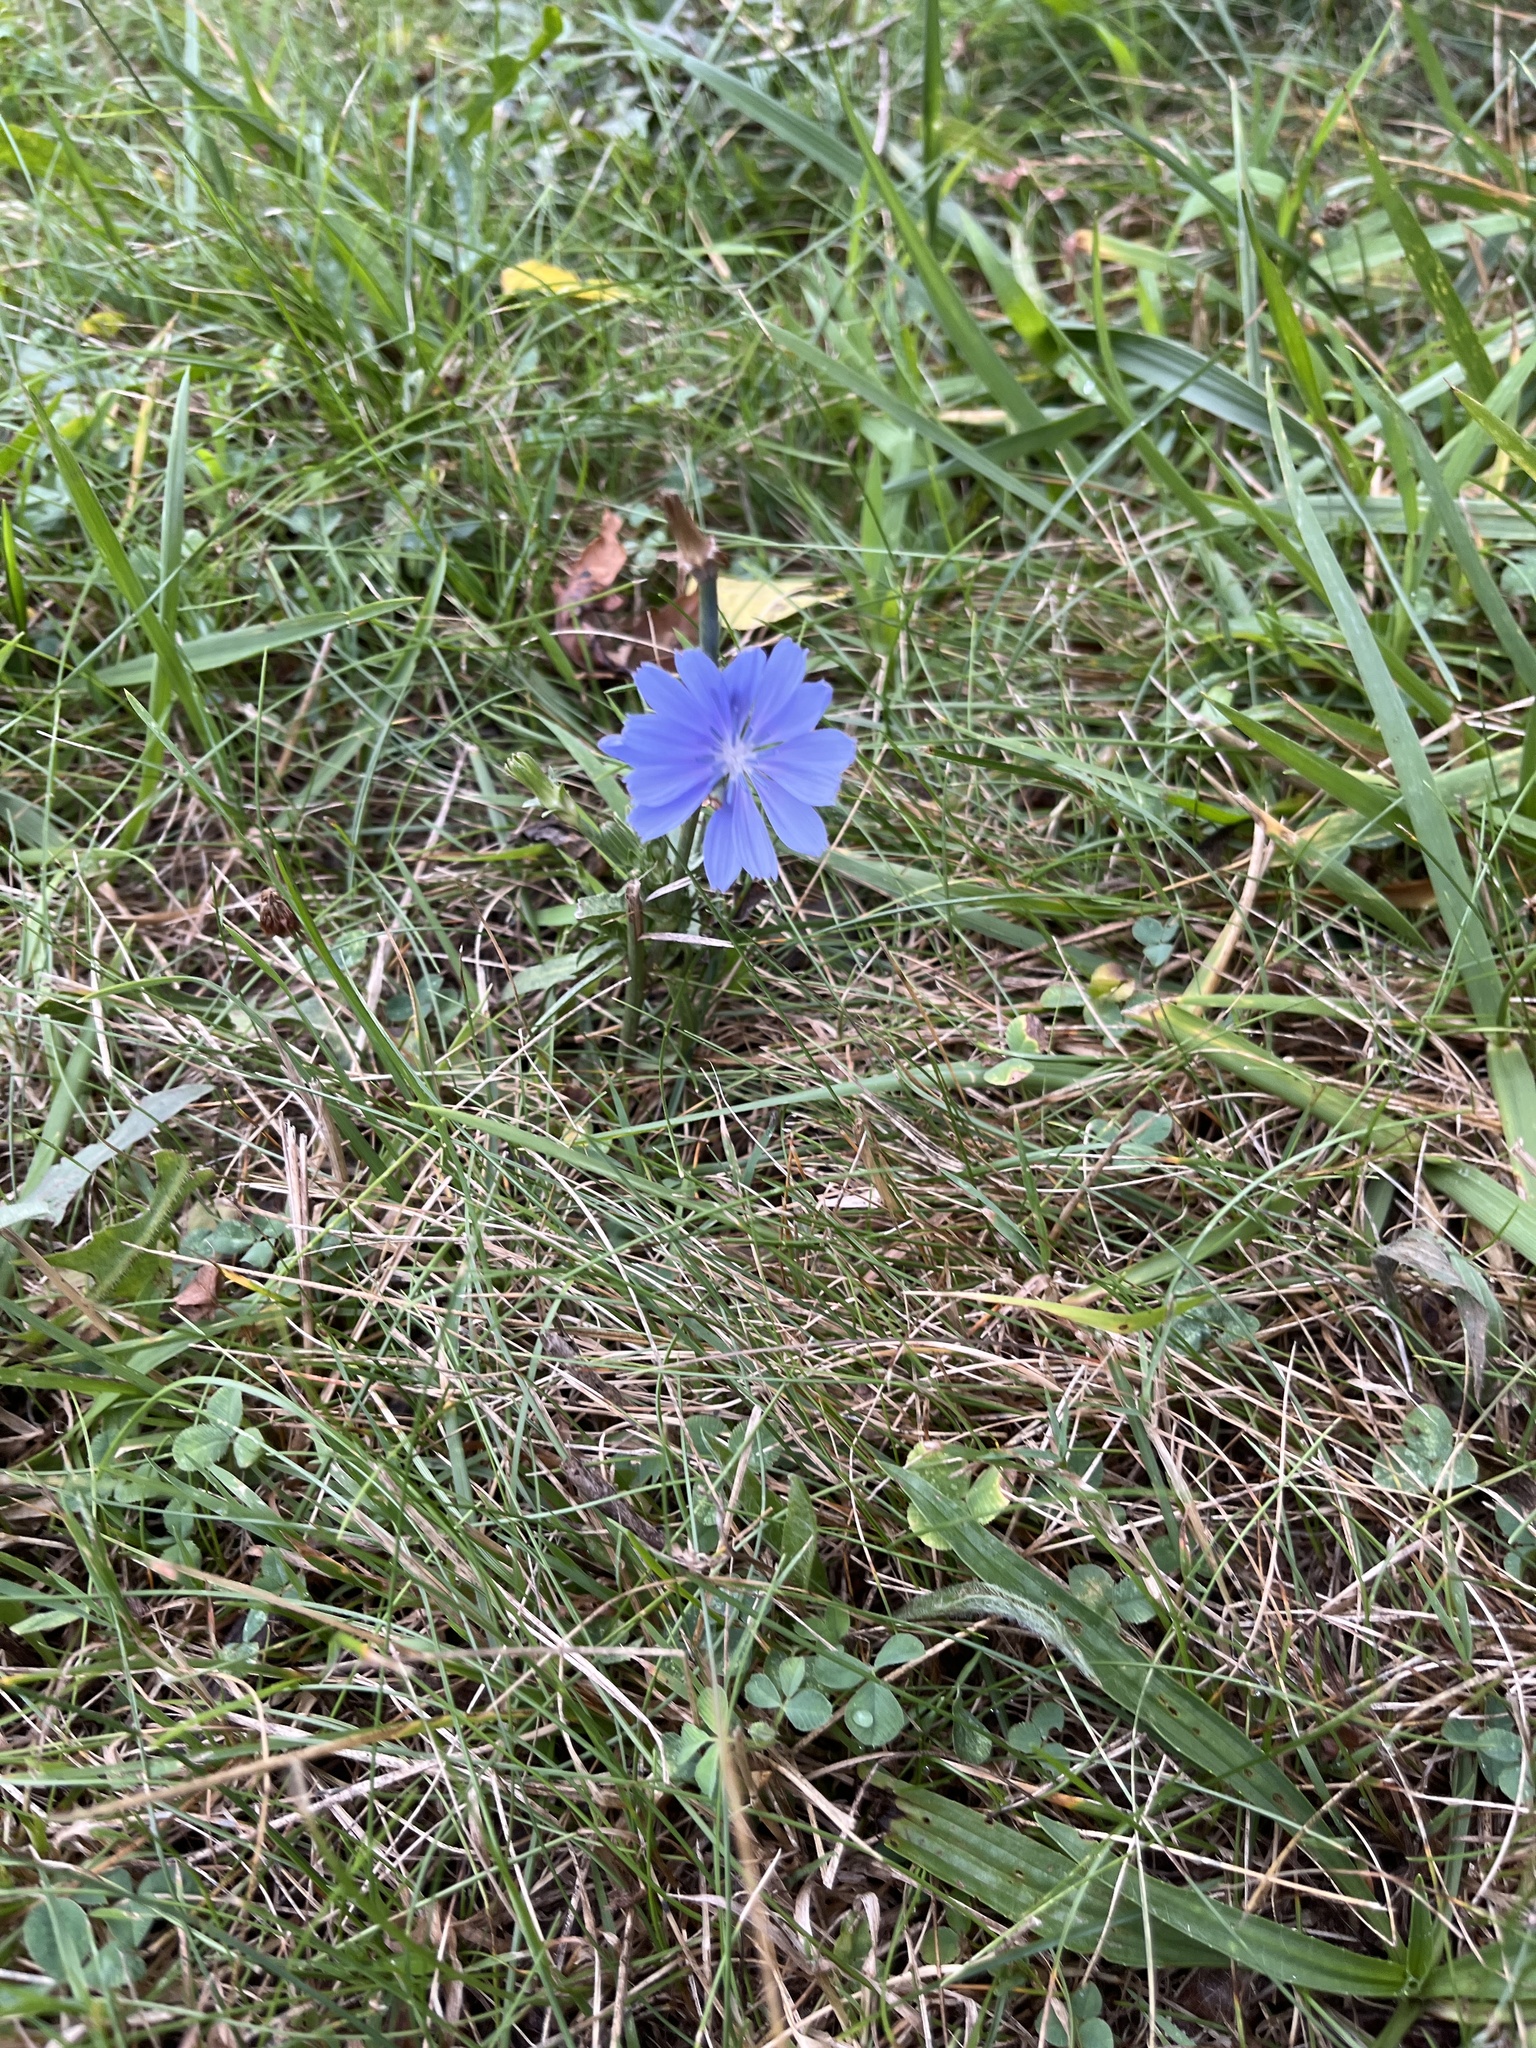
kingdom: Plantae
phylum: Tracheophyta
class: Magnoliopsida
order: Asterales
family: Asteraceae
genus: Cichorium
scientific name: Cichorium intybus
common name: Chicory
